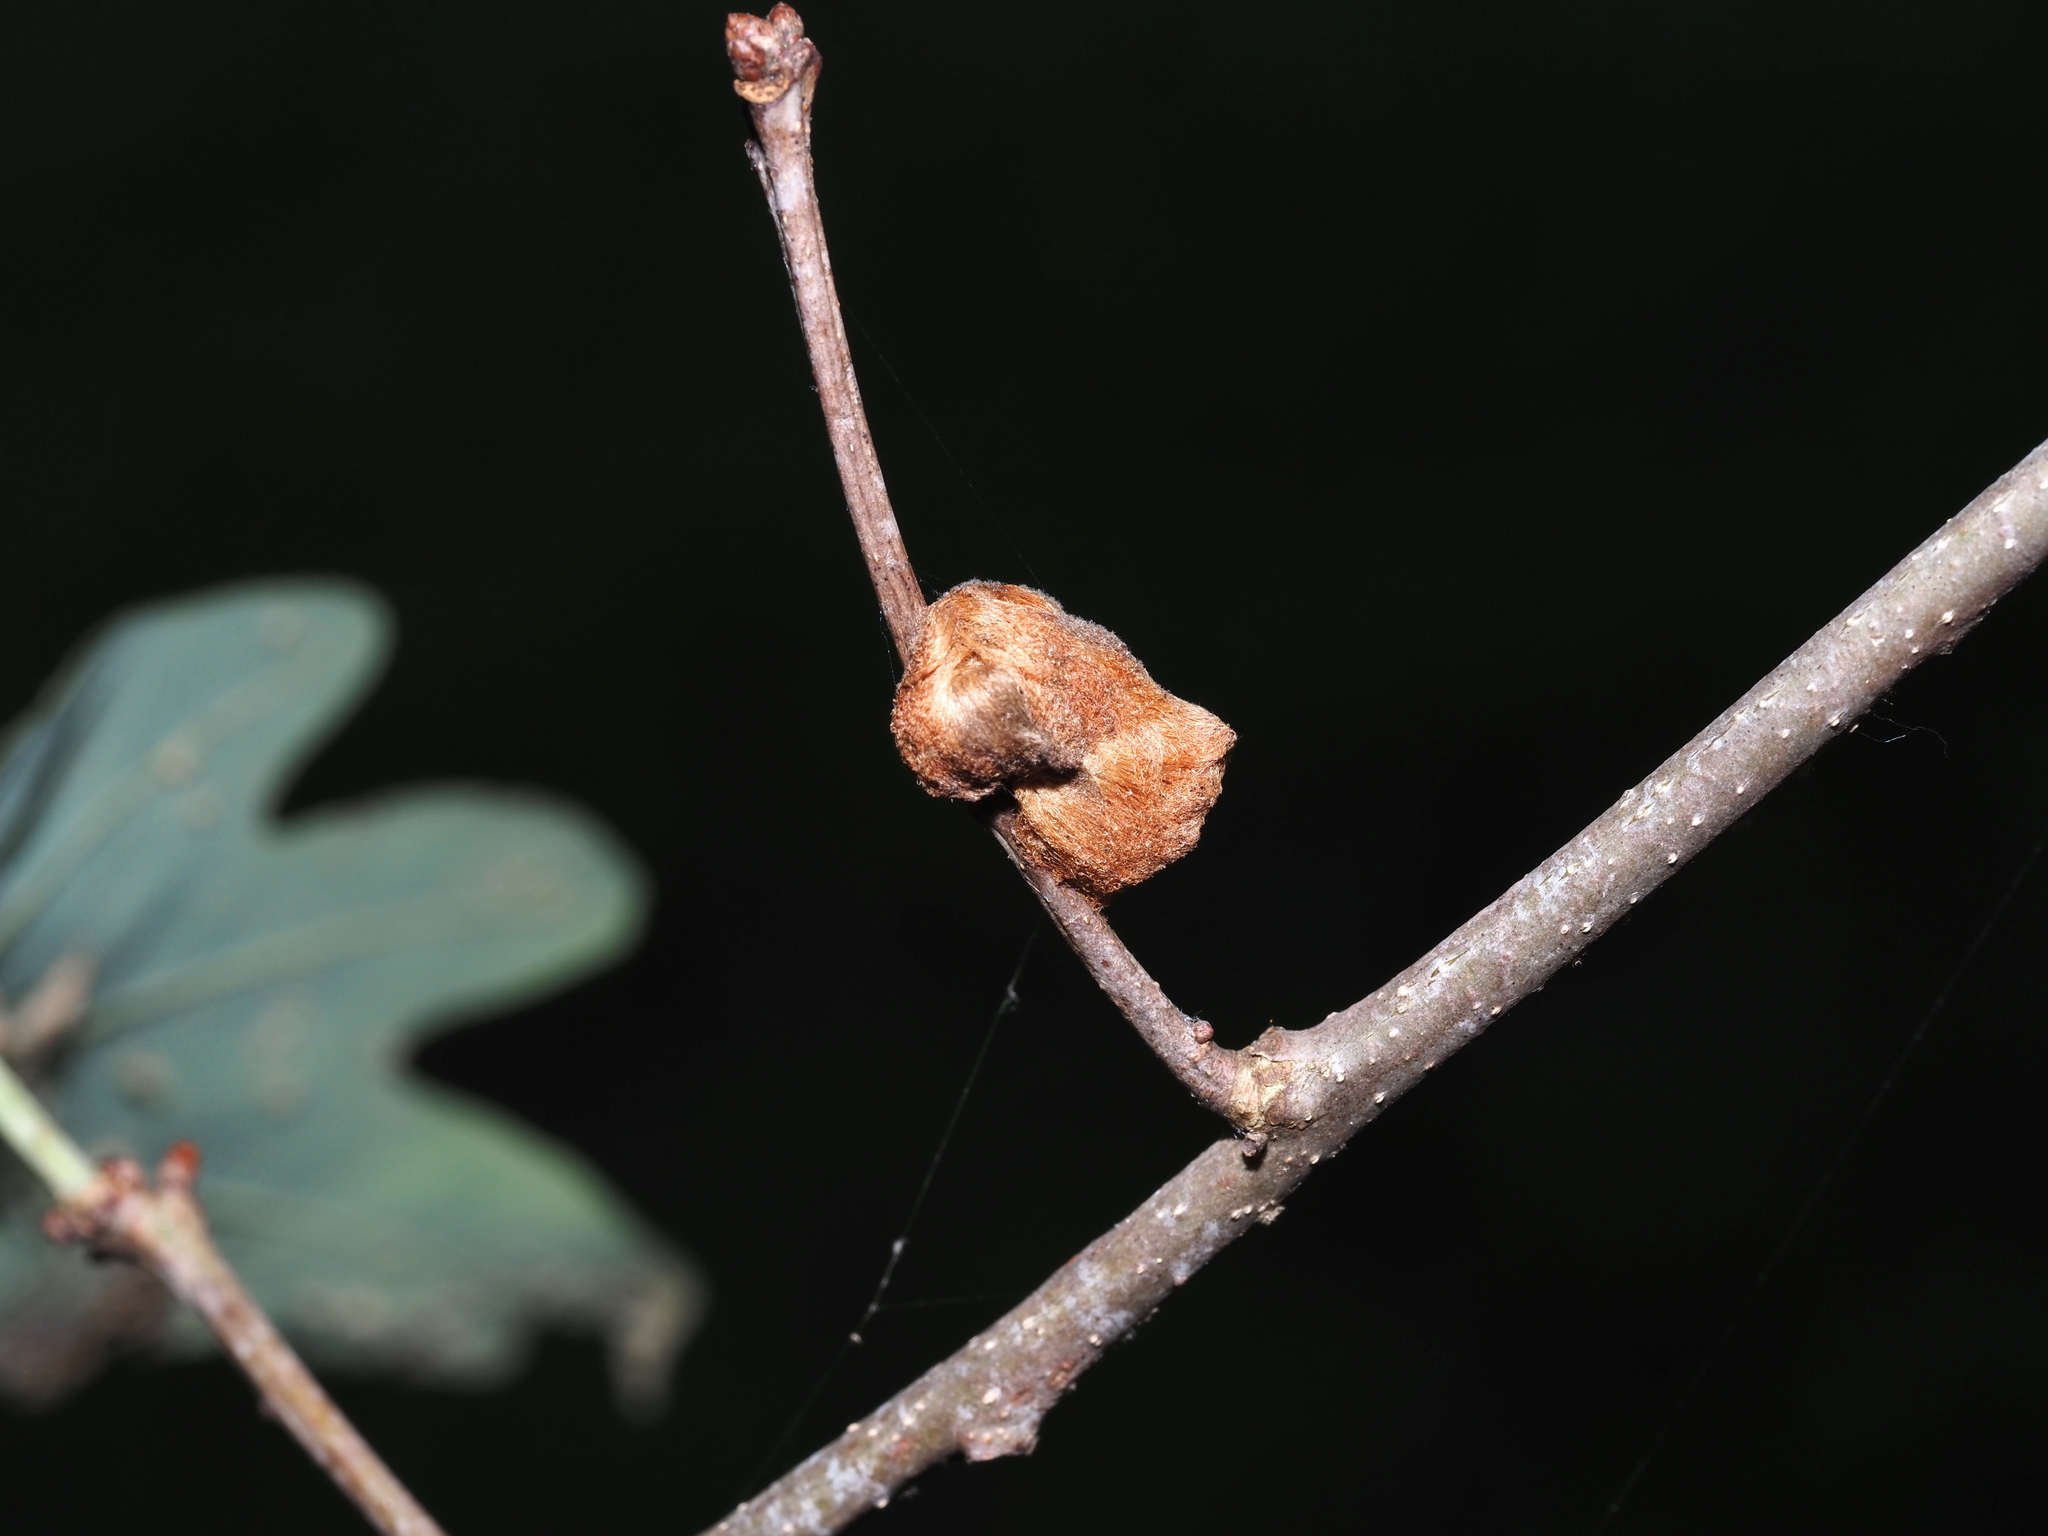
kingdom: Animalia
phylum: Arthropoda
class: Insecta
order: Hymenoptera
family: Cynipidae
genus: Andricus
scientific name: Andricus quercusflocci
